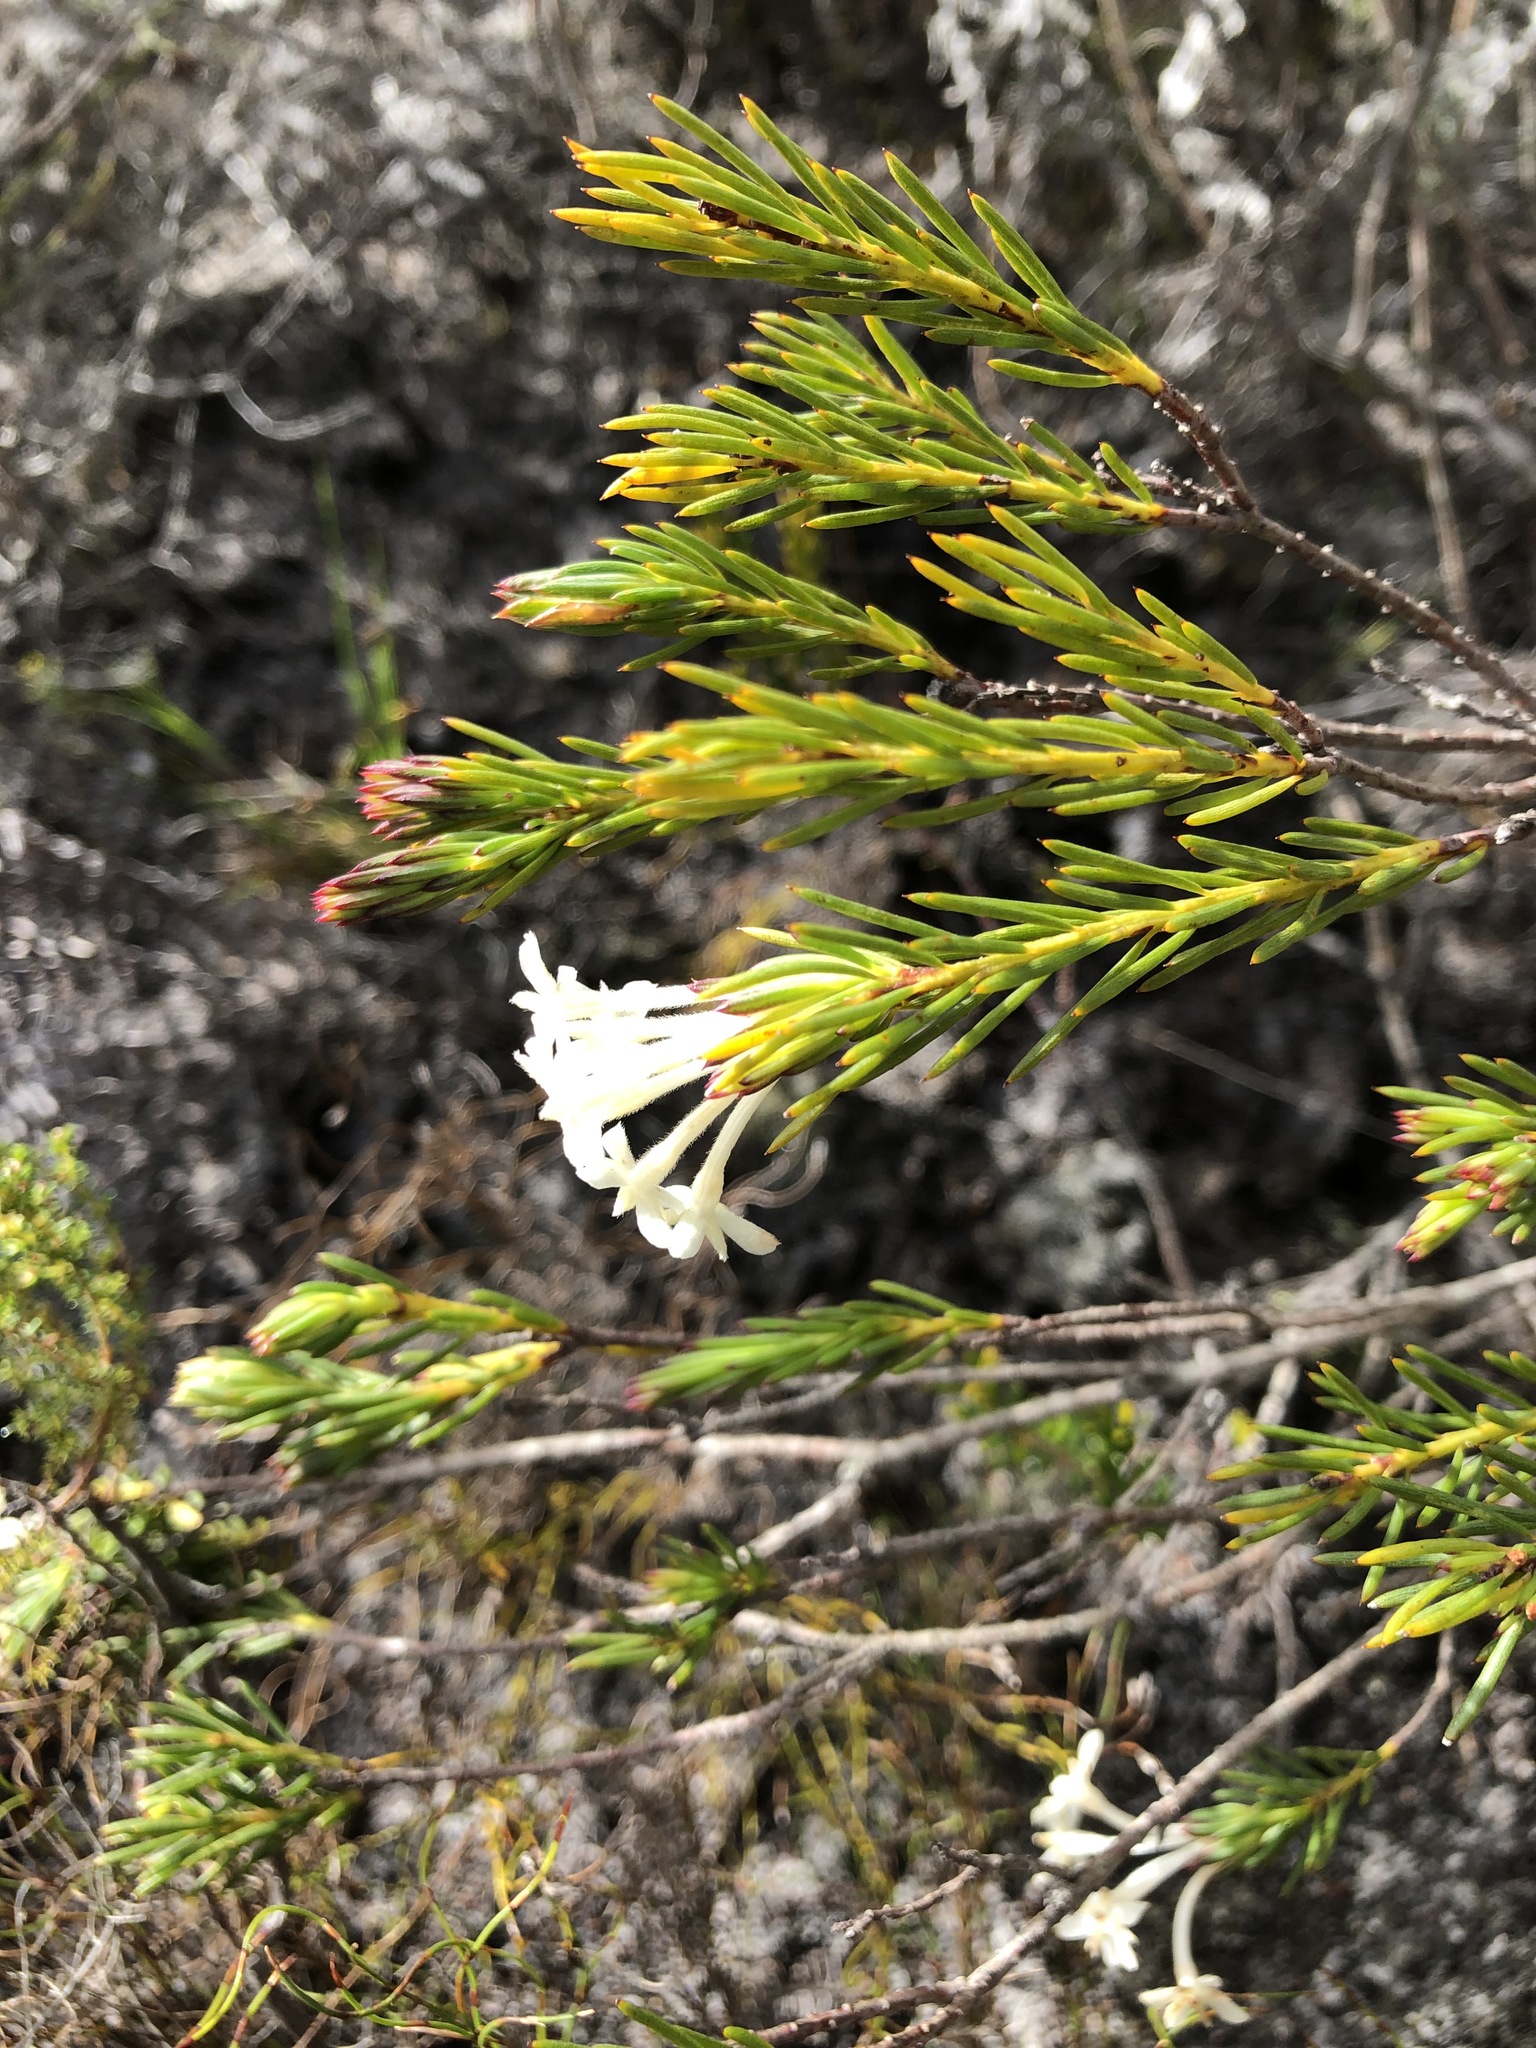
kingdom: Plantae
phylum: Tracheophyta
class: Magnoliopsida
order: Malvales
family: Thymelaeaceae
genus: Gnidia
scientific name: Gnidia pinifolia
